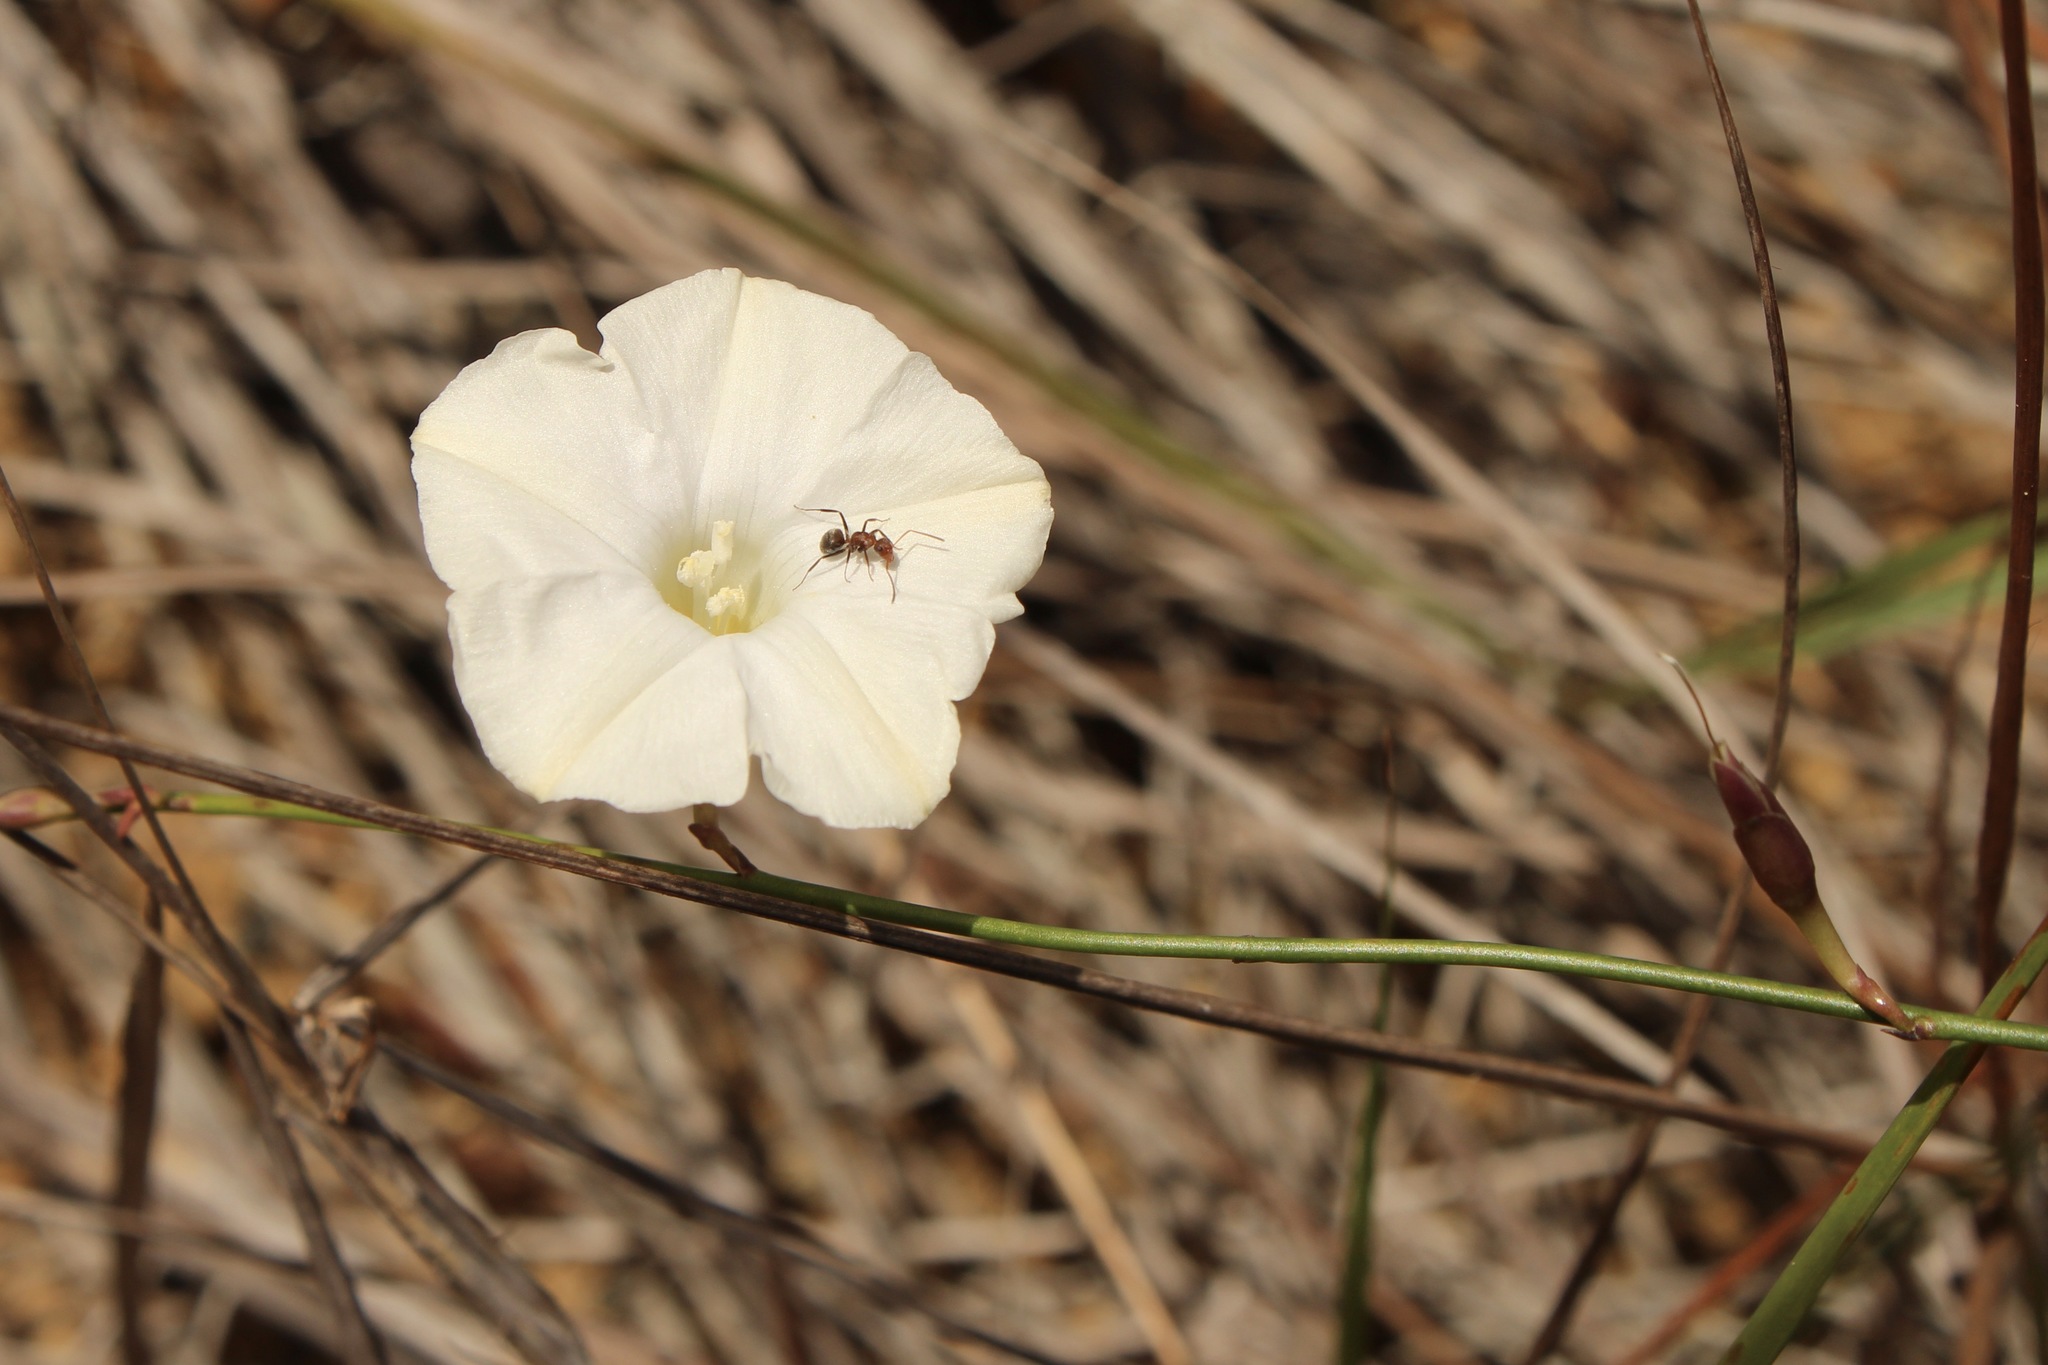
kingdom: Plantae
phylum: Tracheophyta
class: Magnoliopsida
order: Solanales
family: Convolvulaceae
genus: Distimake
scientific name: Distimake aturensis
